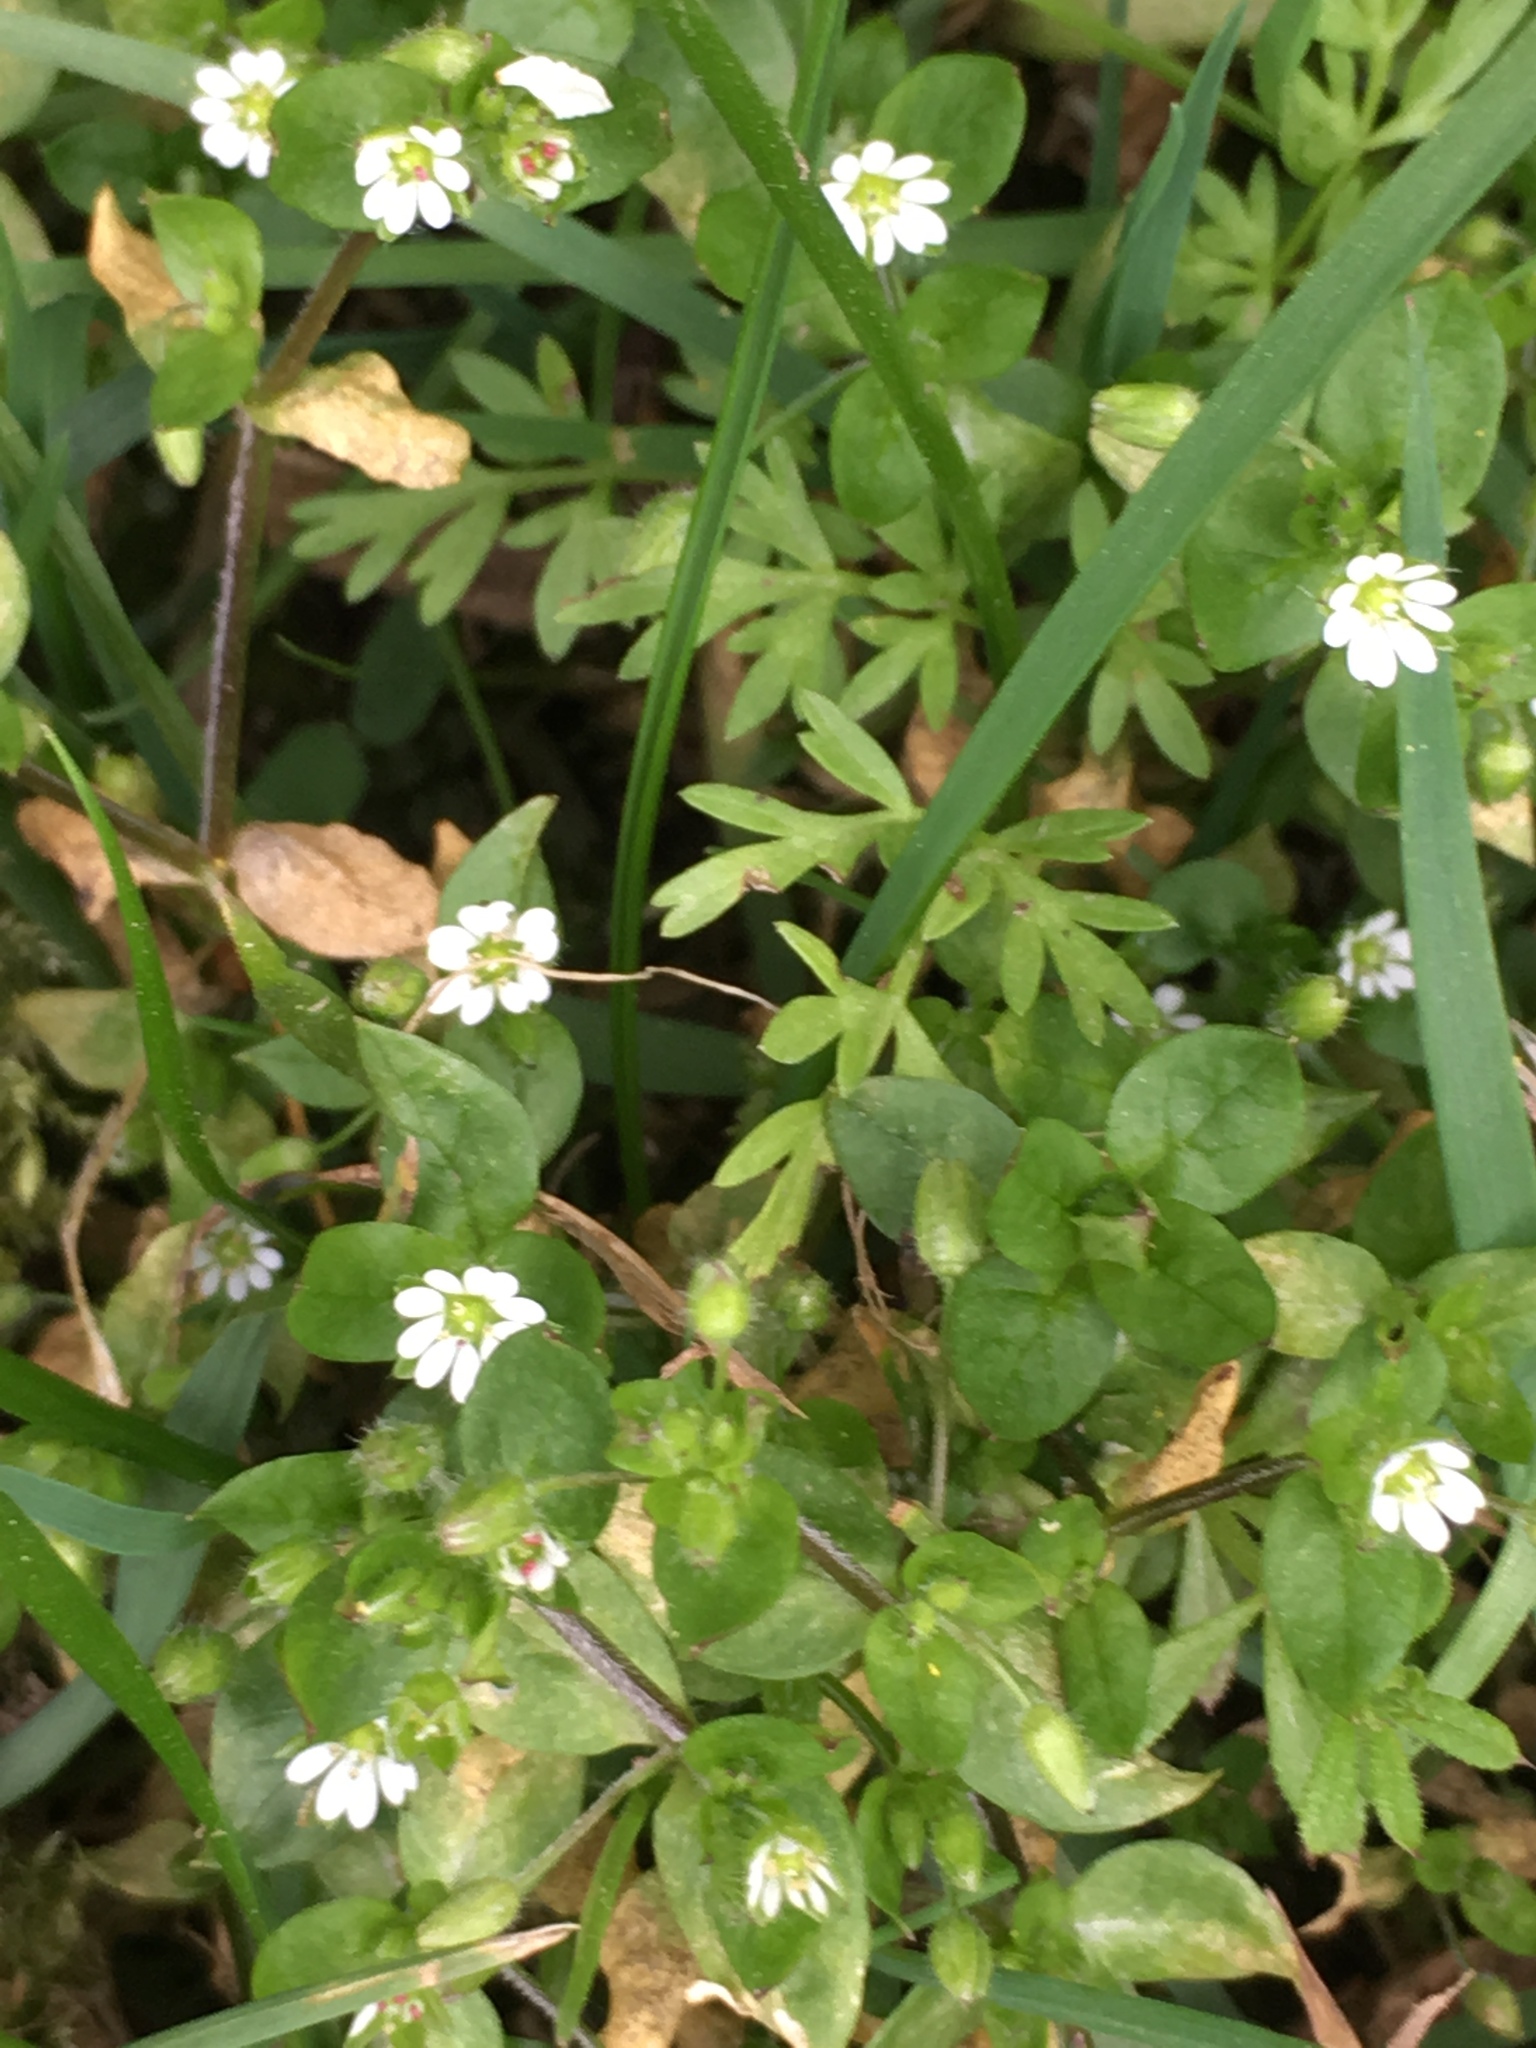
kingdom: Plantae
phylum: Tracheophyta
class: Magnoliopsida
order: Caryophyllales
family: Caryophyllaceae
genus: Stellaria
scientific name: Stellaria media
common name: Common chickweed
